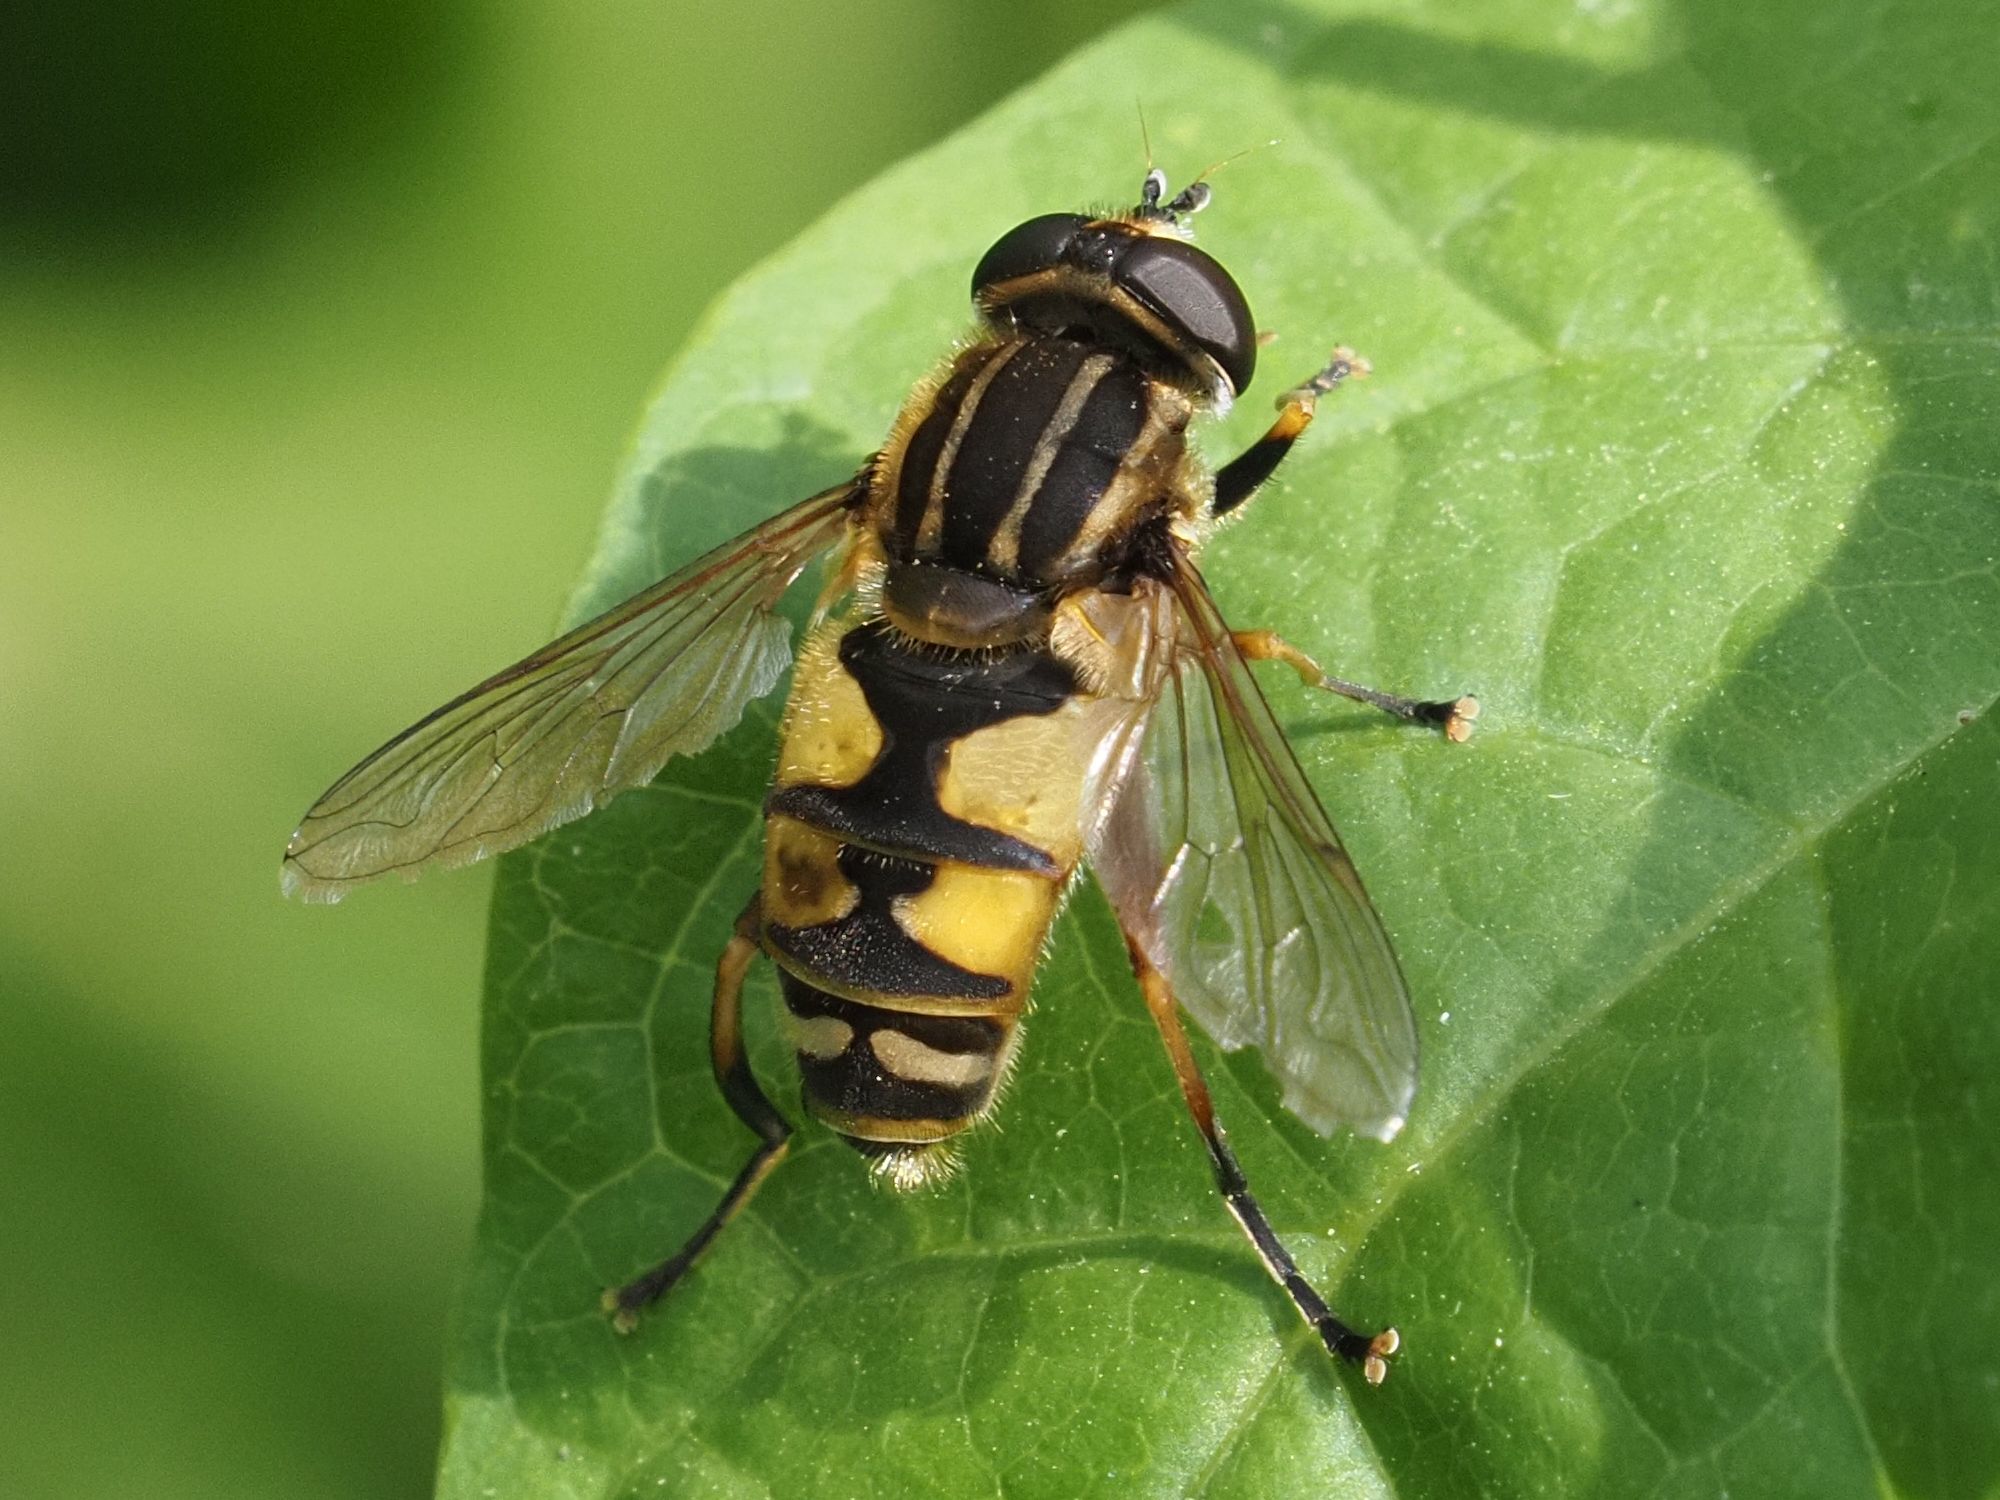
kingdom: Animalia
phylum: Arthropoda
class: Insecta
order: Diptera
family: Syrphidae
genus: Helophilus
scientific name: Helophilus pendulus
